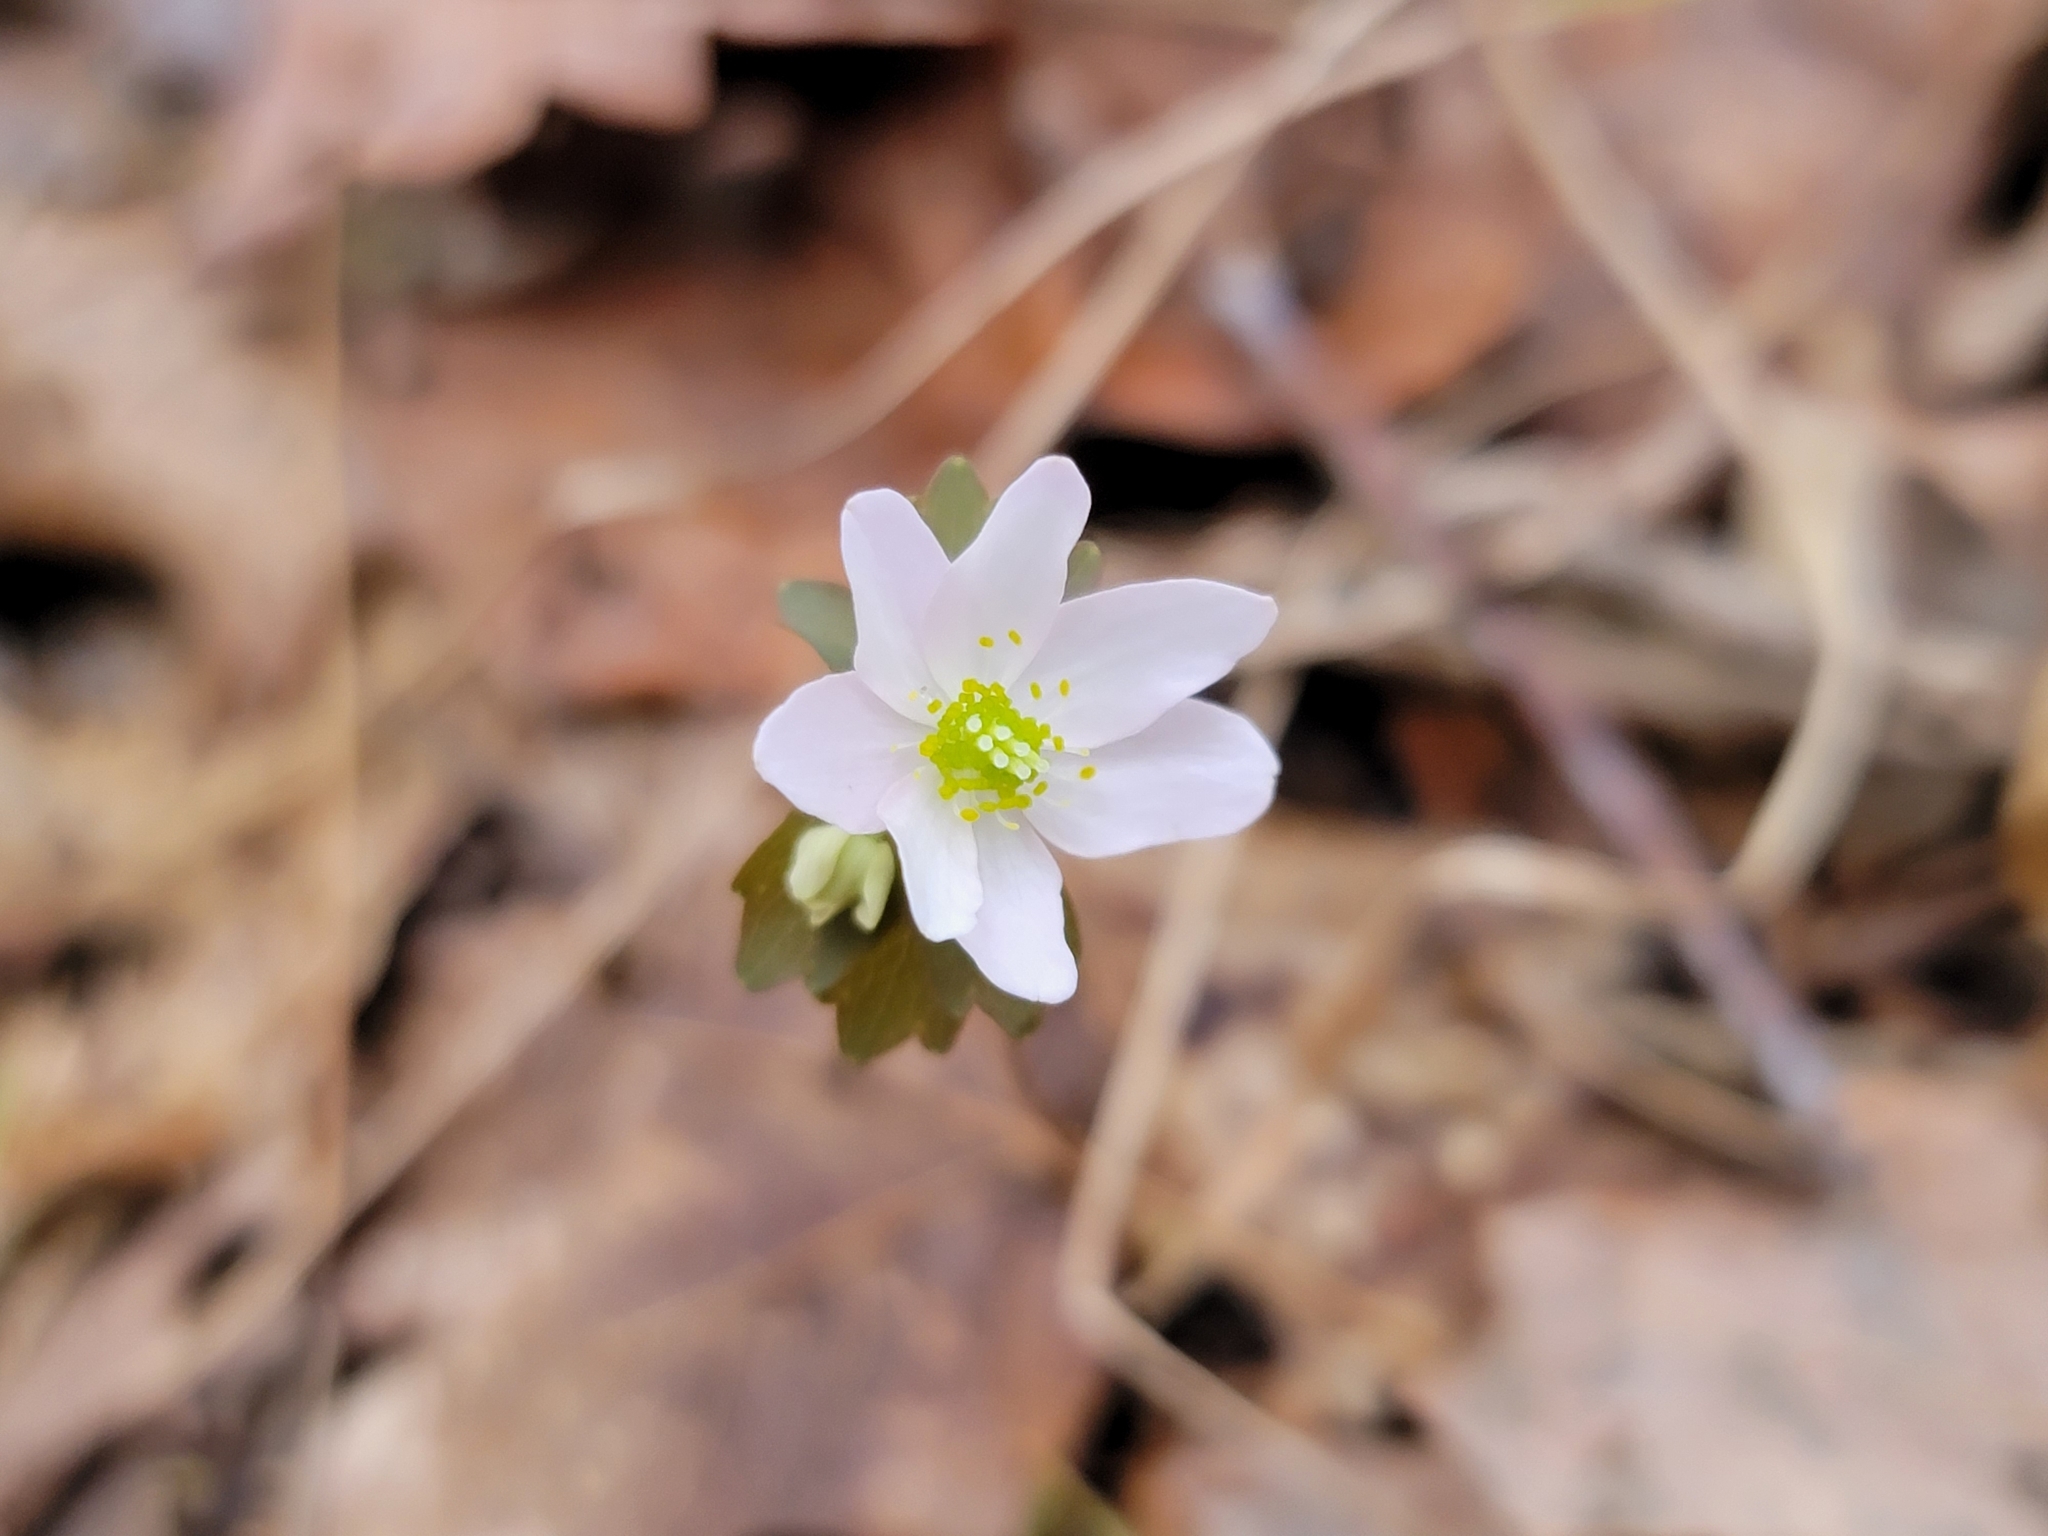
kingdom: Plantae
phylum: Tracheophyta
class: Magnoliopsida
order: Ranunculales
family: Ranunculaceae
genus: Thalictrum
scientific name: Thalictrum thalictroides
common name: Rue-anemone
